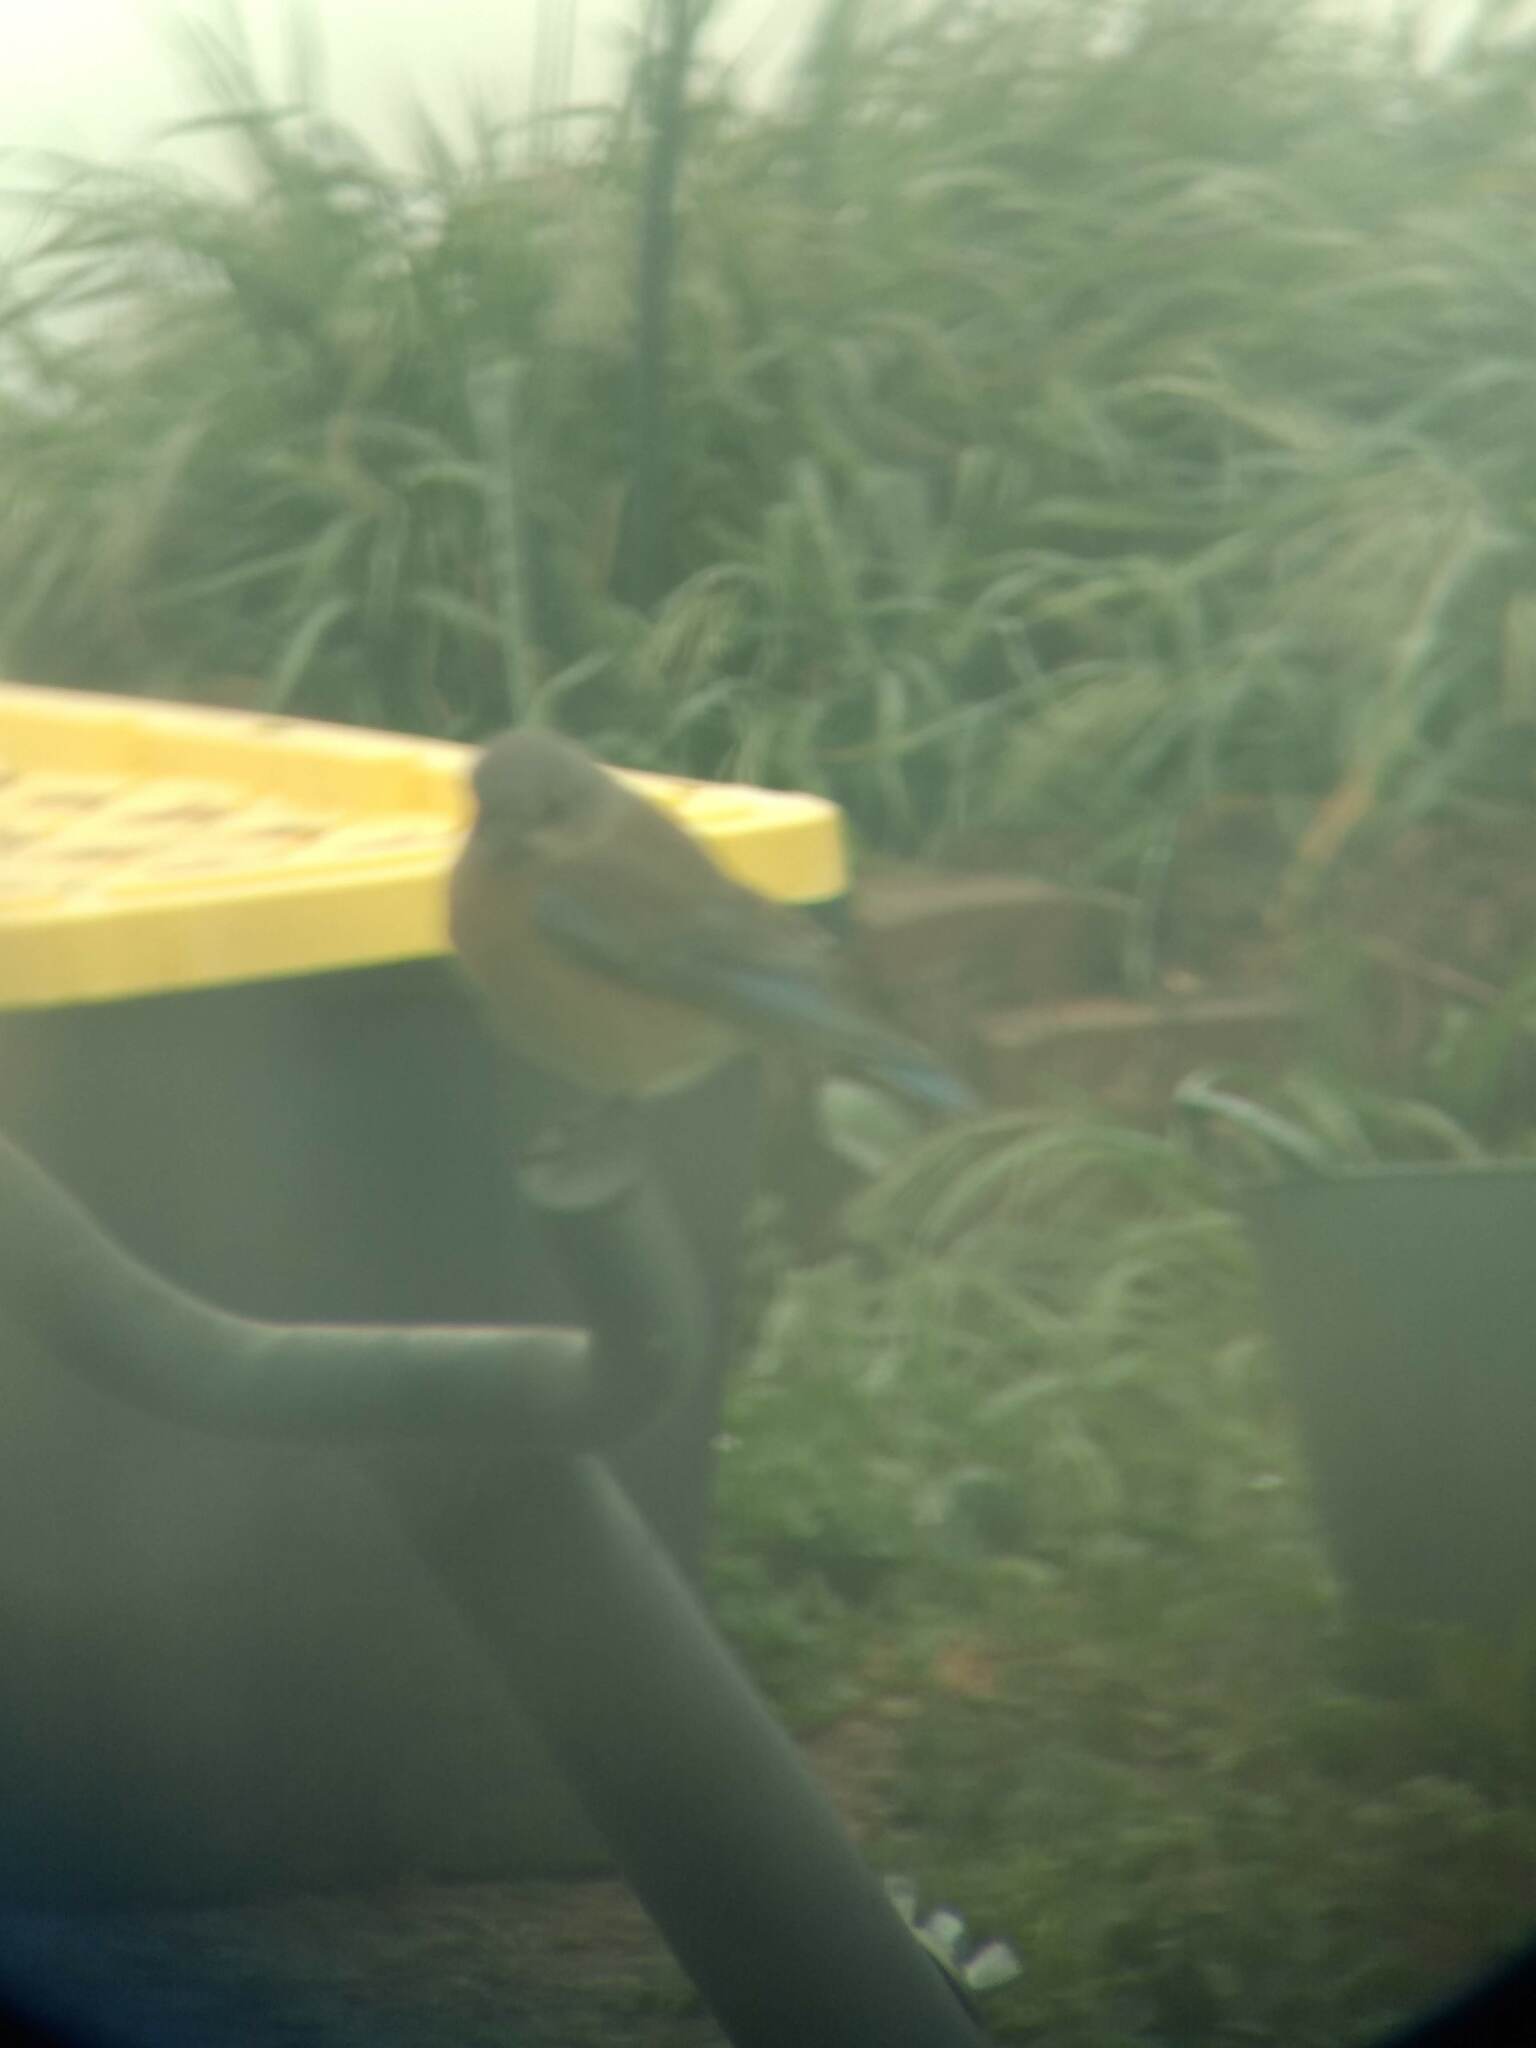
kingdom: Animalia
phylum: Chordata
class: Aves
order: Passeriformes
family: Turdidae
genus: Sialia
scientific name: Sialia mexicana
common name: Western bluebird
